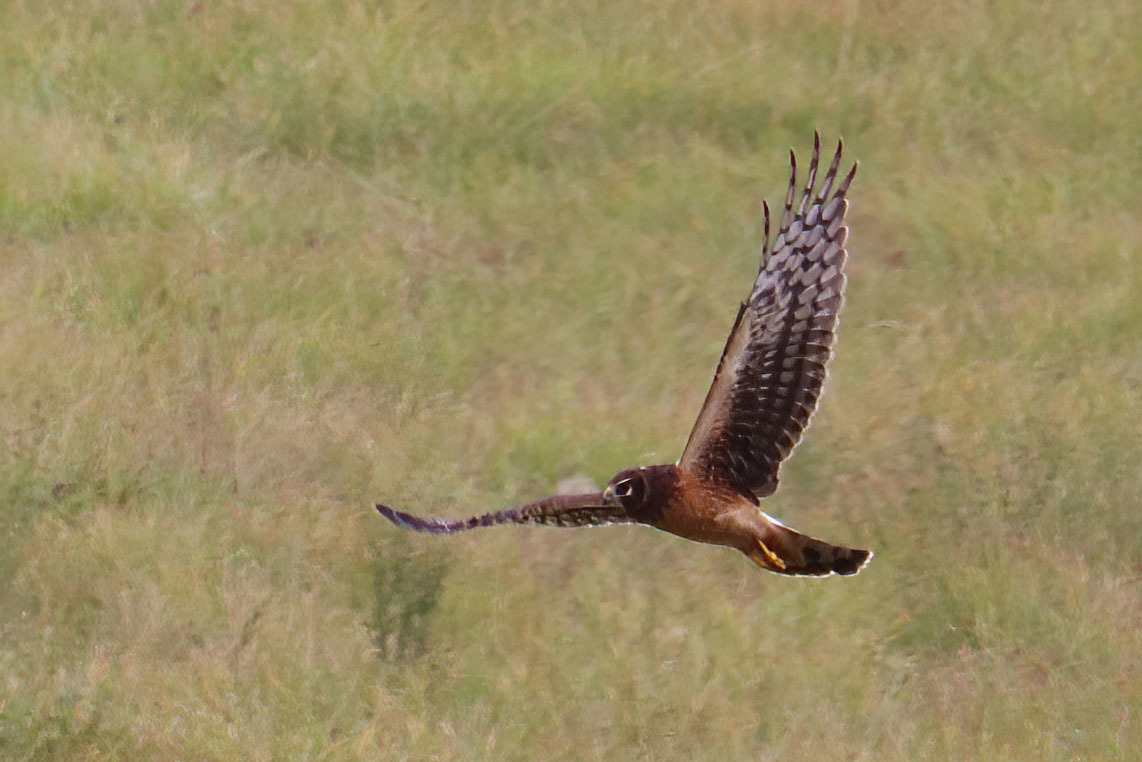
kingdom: Animalia
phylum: Chordata
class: Aves
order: Accipitriformes
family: Accipitridae
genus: Circus
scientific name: Circus cyaneus
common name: Hen harrier
